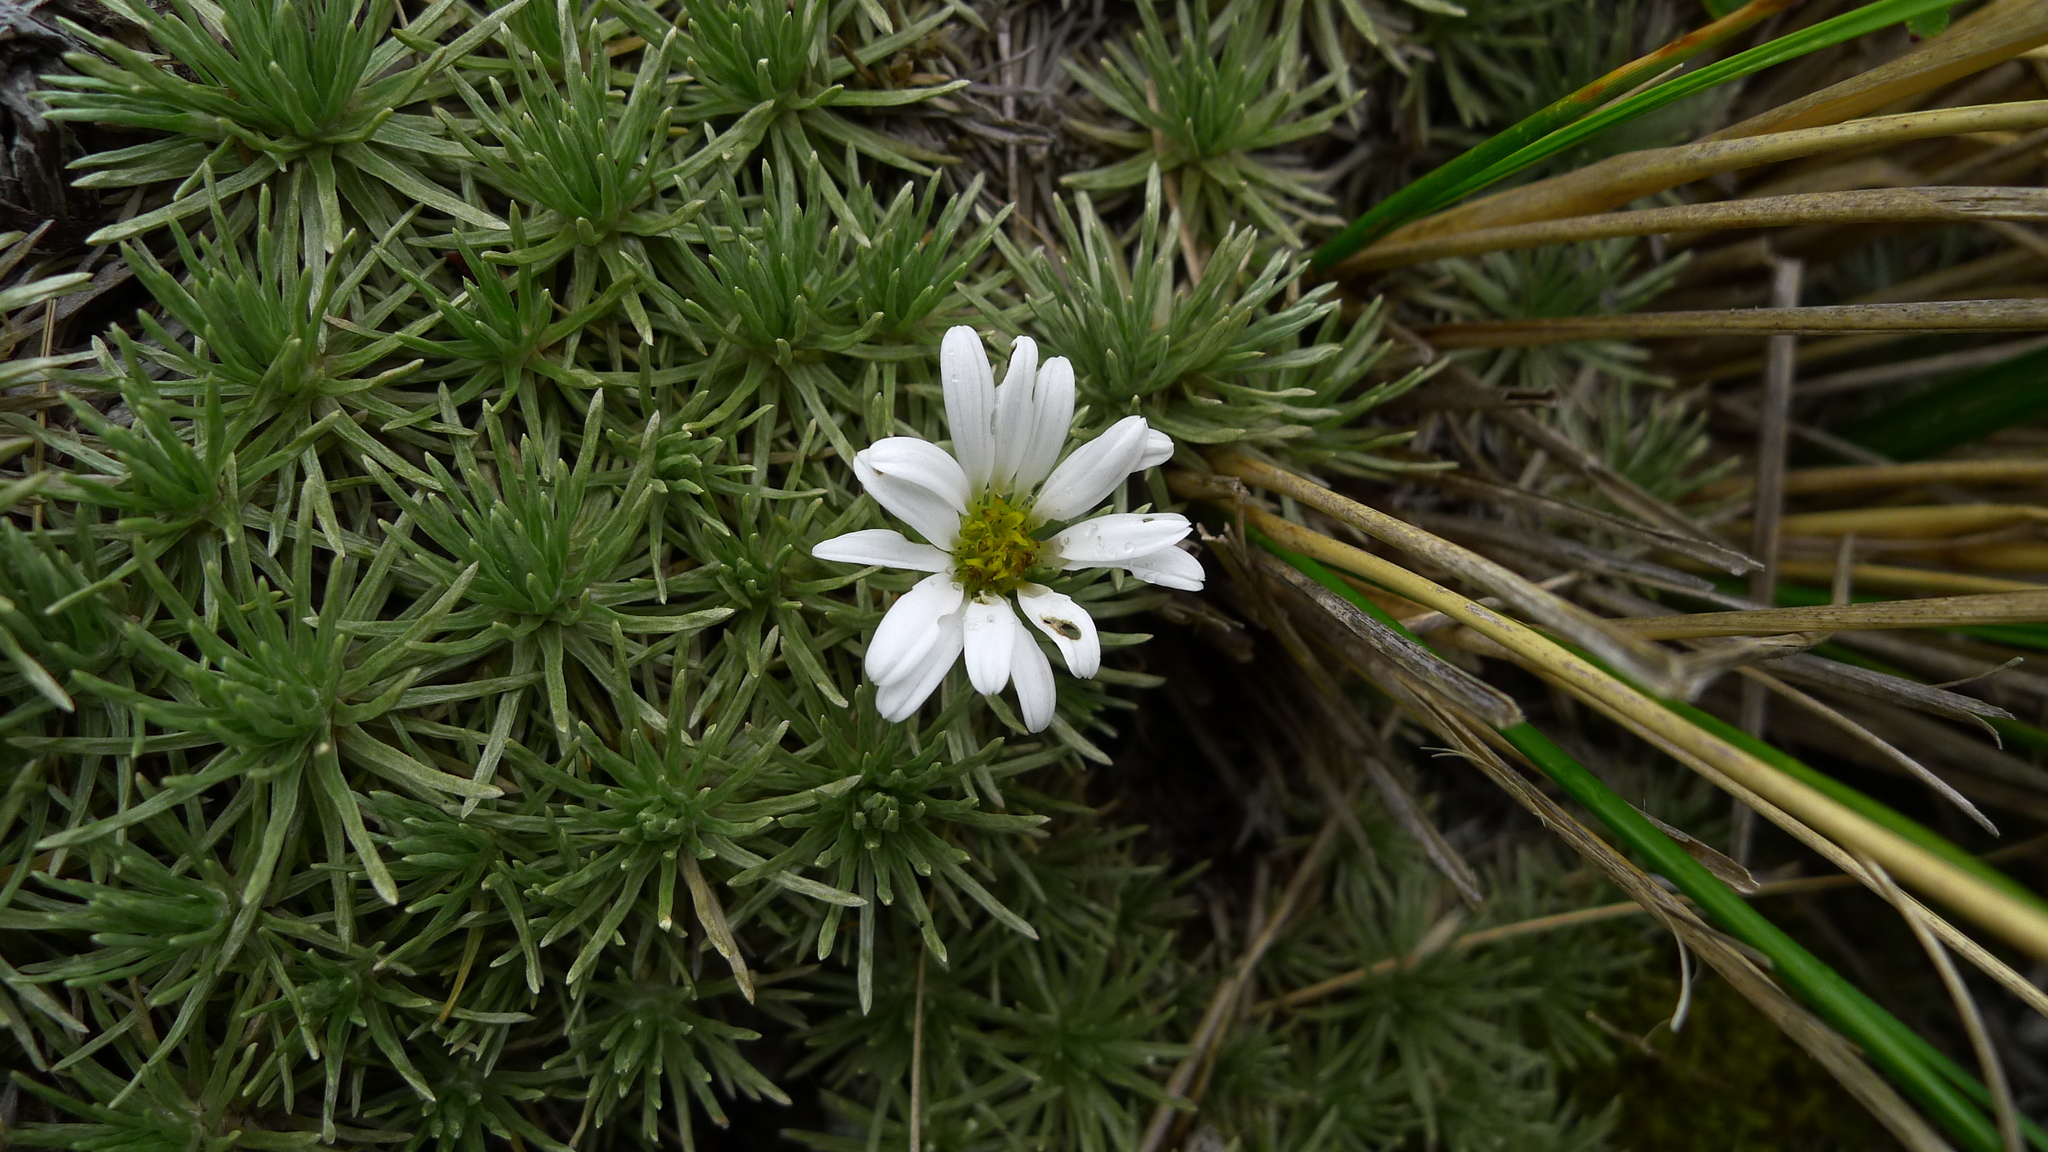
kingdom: Plantae
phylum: Tracheophyta
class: Magnoliopsida
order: Asterales
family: Asteraceae
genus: Celmisia
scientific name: Celmisia sessiliflora
